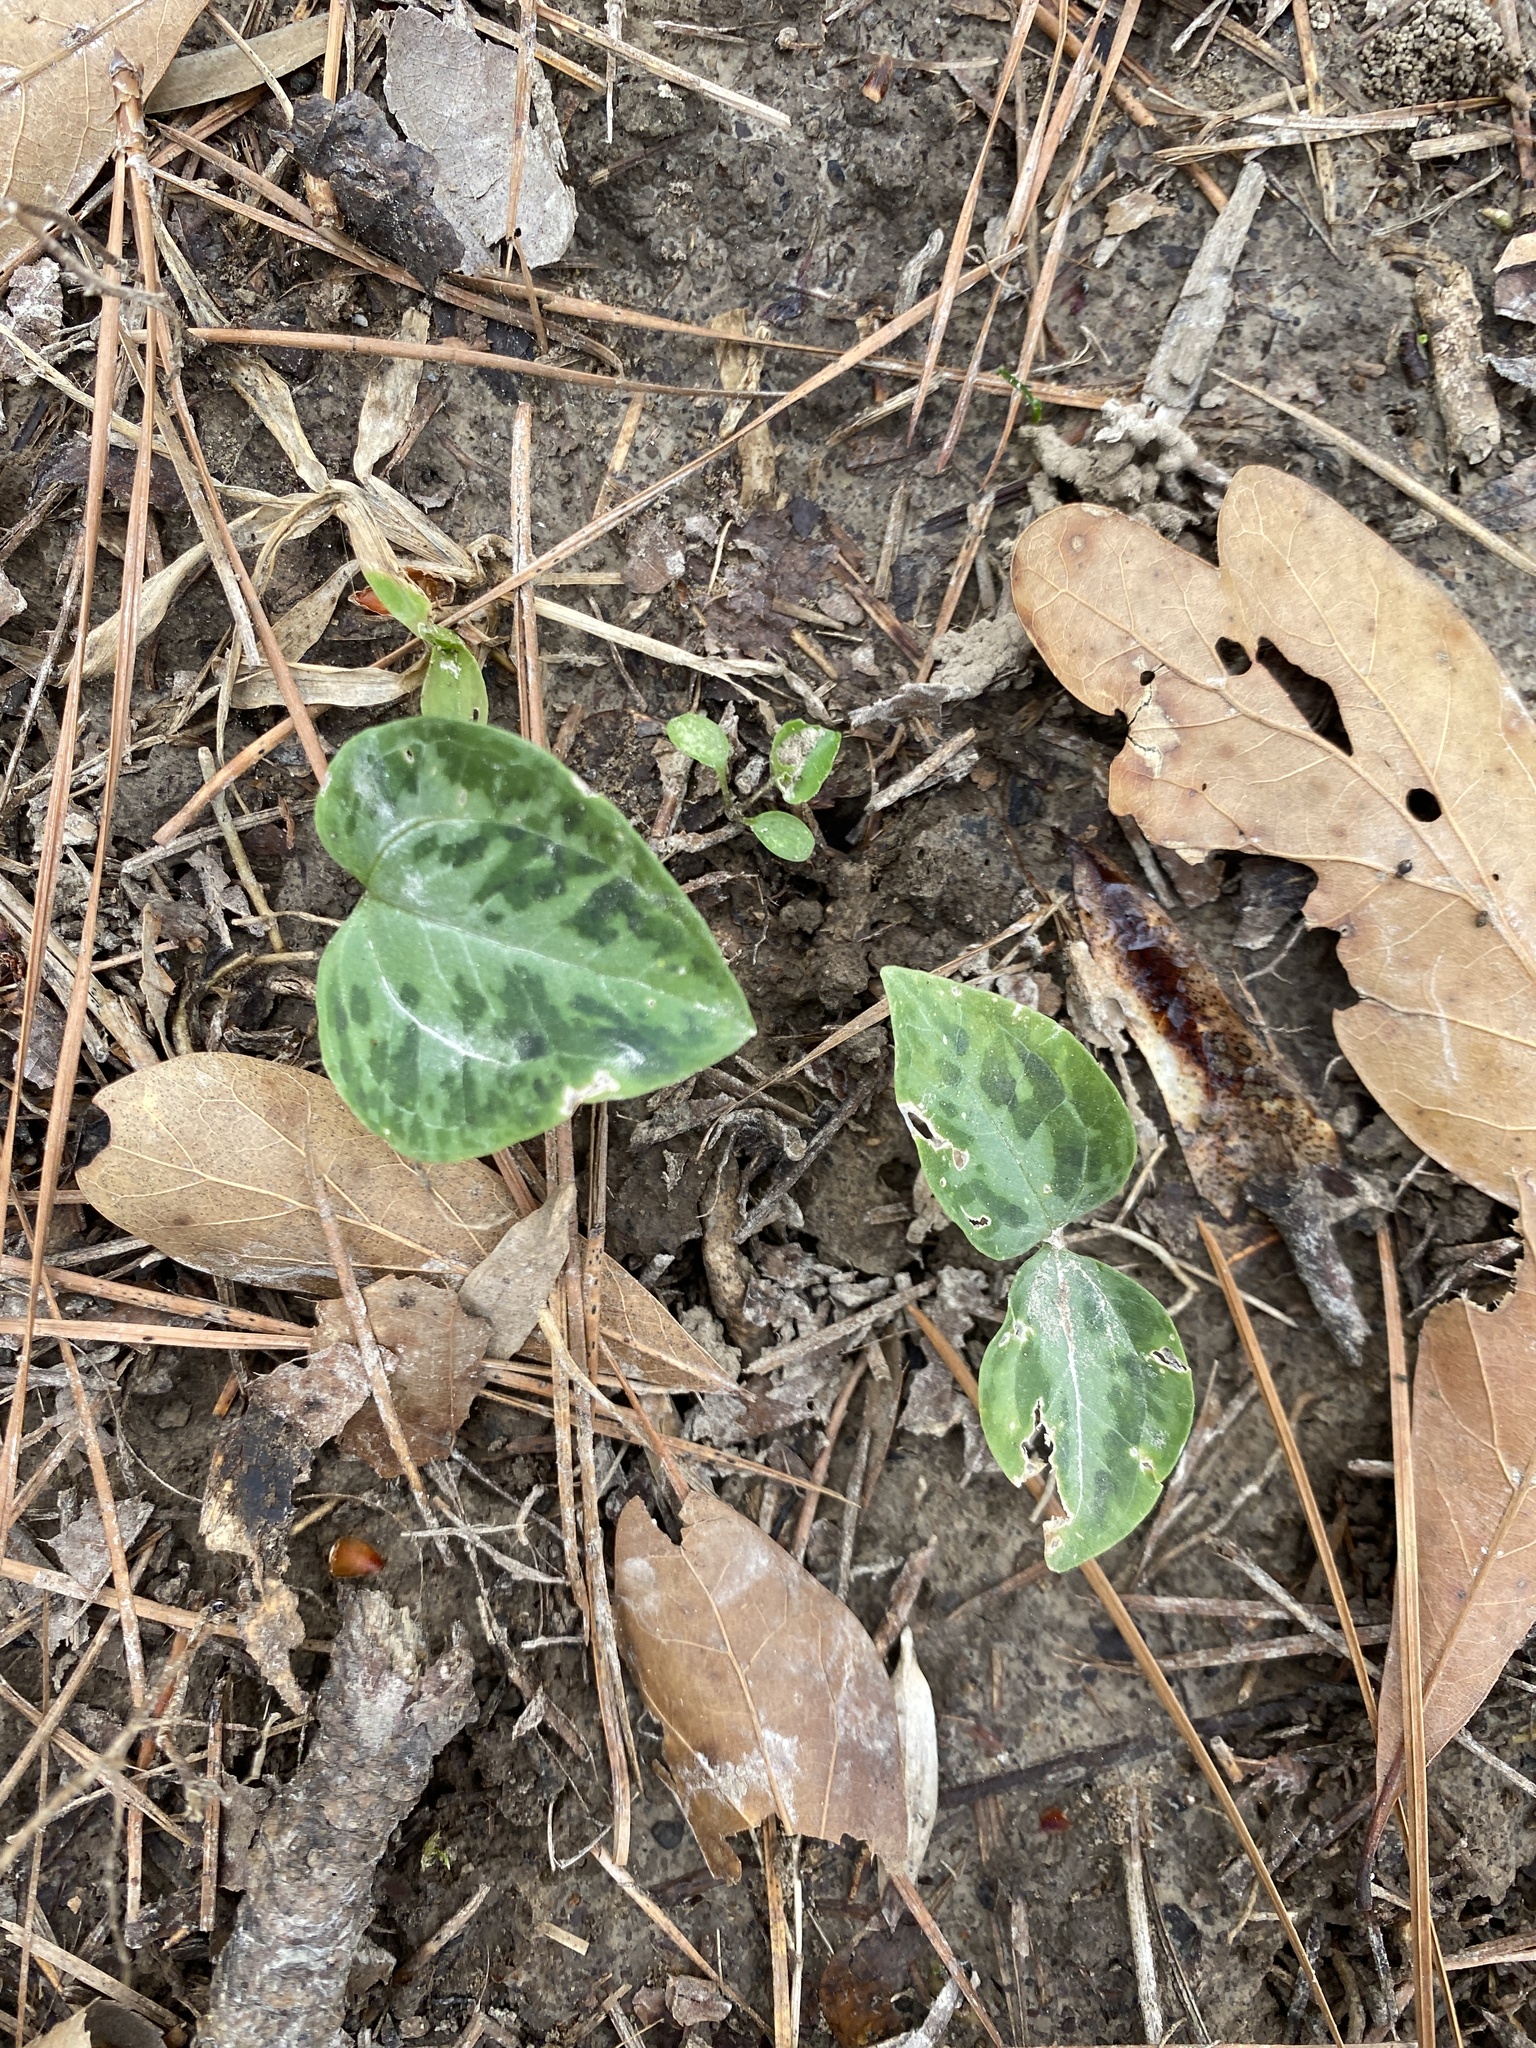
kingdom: Plantae
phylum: Tracheophyta
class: Liliopsida
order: Liliales
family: Melanthiaceae
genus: Trillium
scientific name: Trillium foetidissimum
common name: Mississippi river trillium
